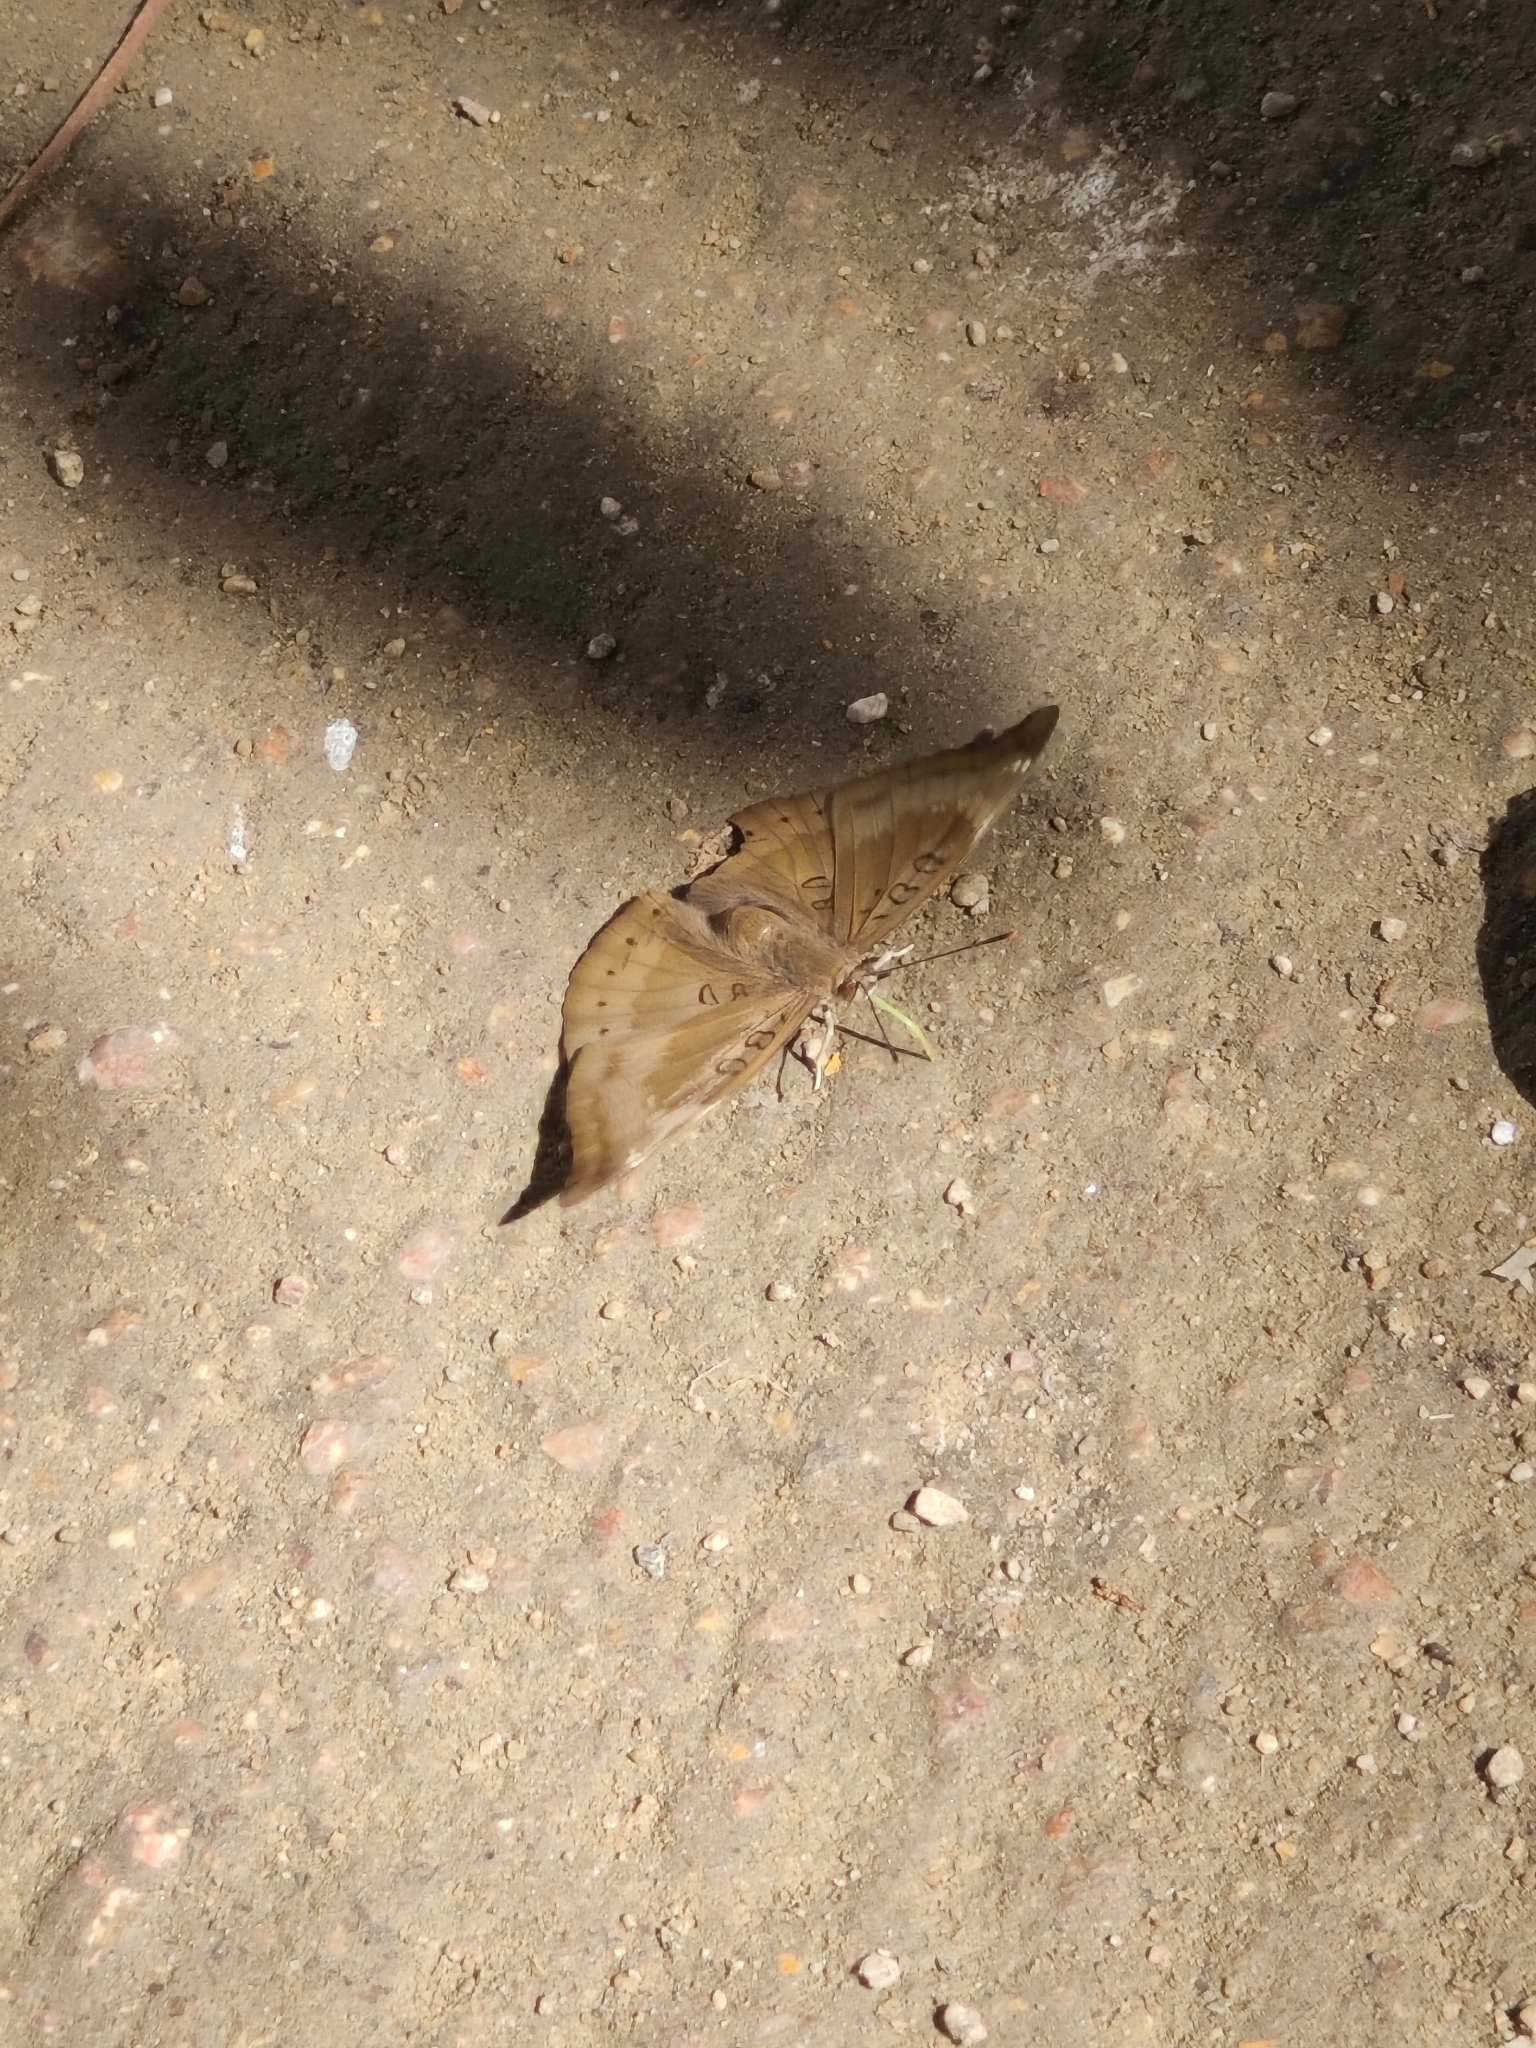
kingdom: Animalia
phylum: Arthropoda
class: Insecta
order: Lepidoptera
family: Nymphalidae
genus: Euthalia
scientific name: Euthalia aconthea
